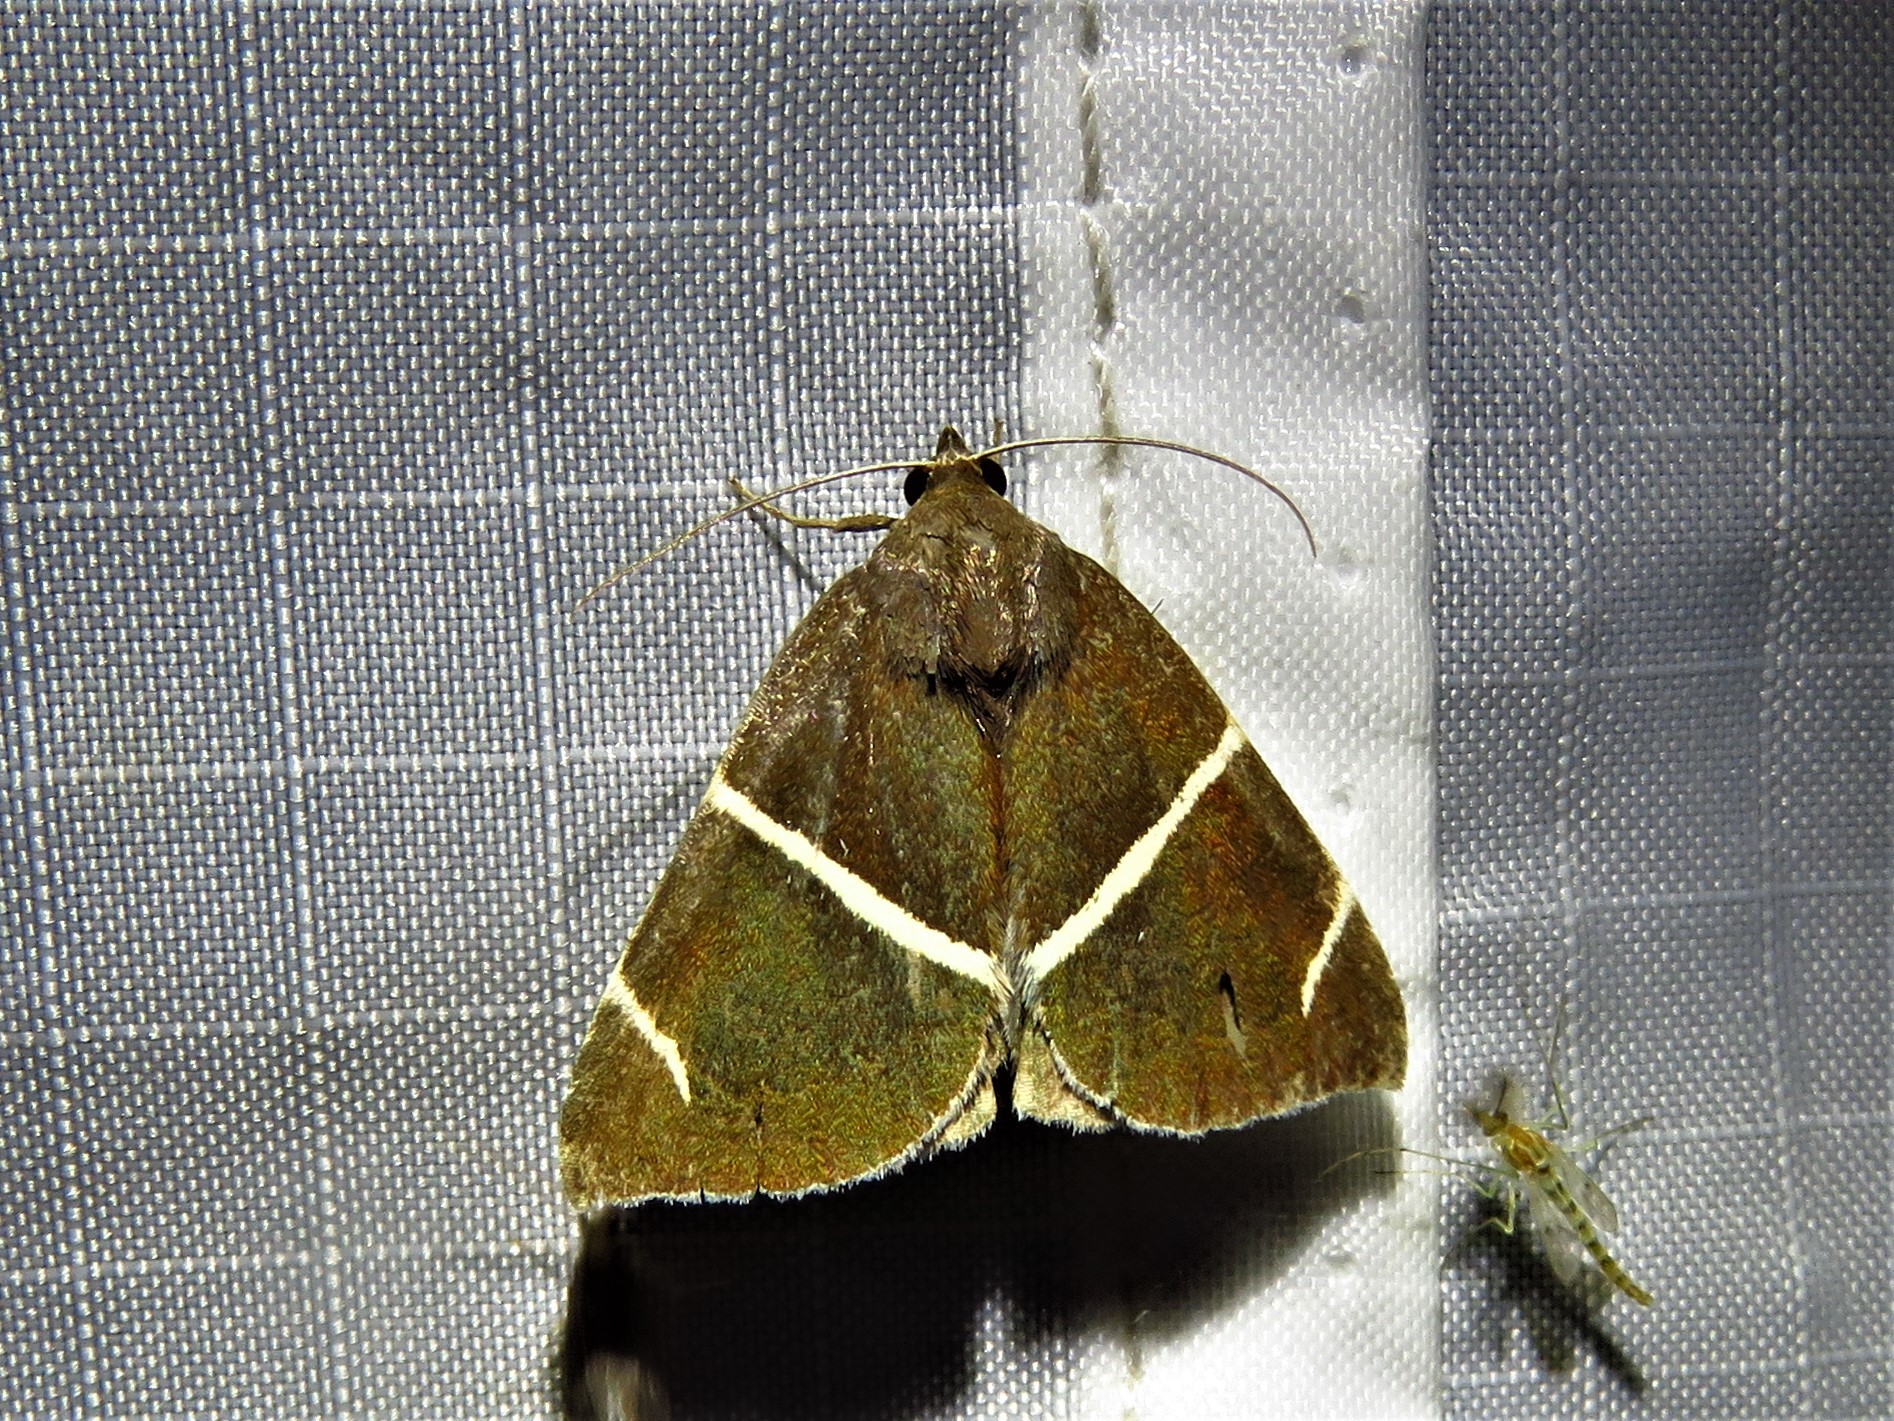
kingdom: Animalia
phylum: Arthropoda
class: Insecta
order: Lepidoptera
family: Erebidae
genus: Argyrostrotis
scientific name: Argyrostrotis anilis
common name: Short-lined chocolate
